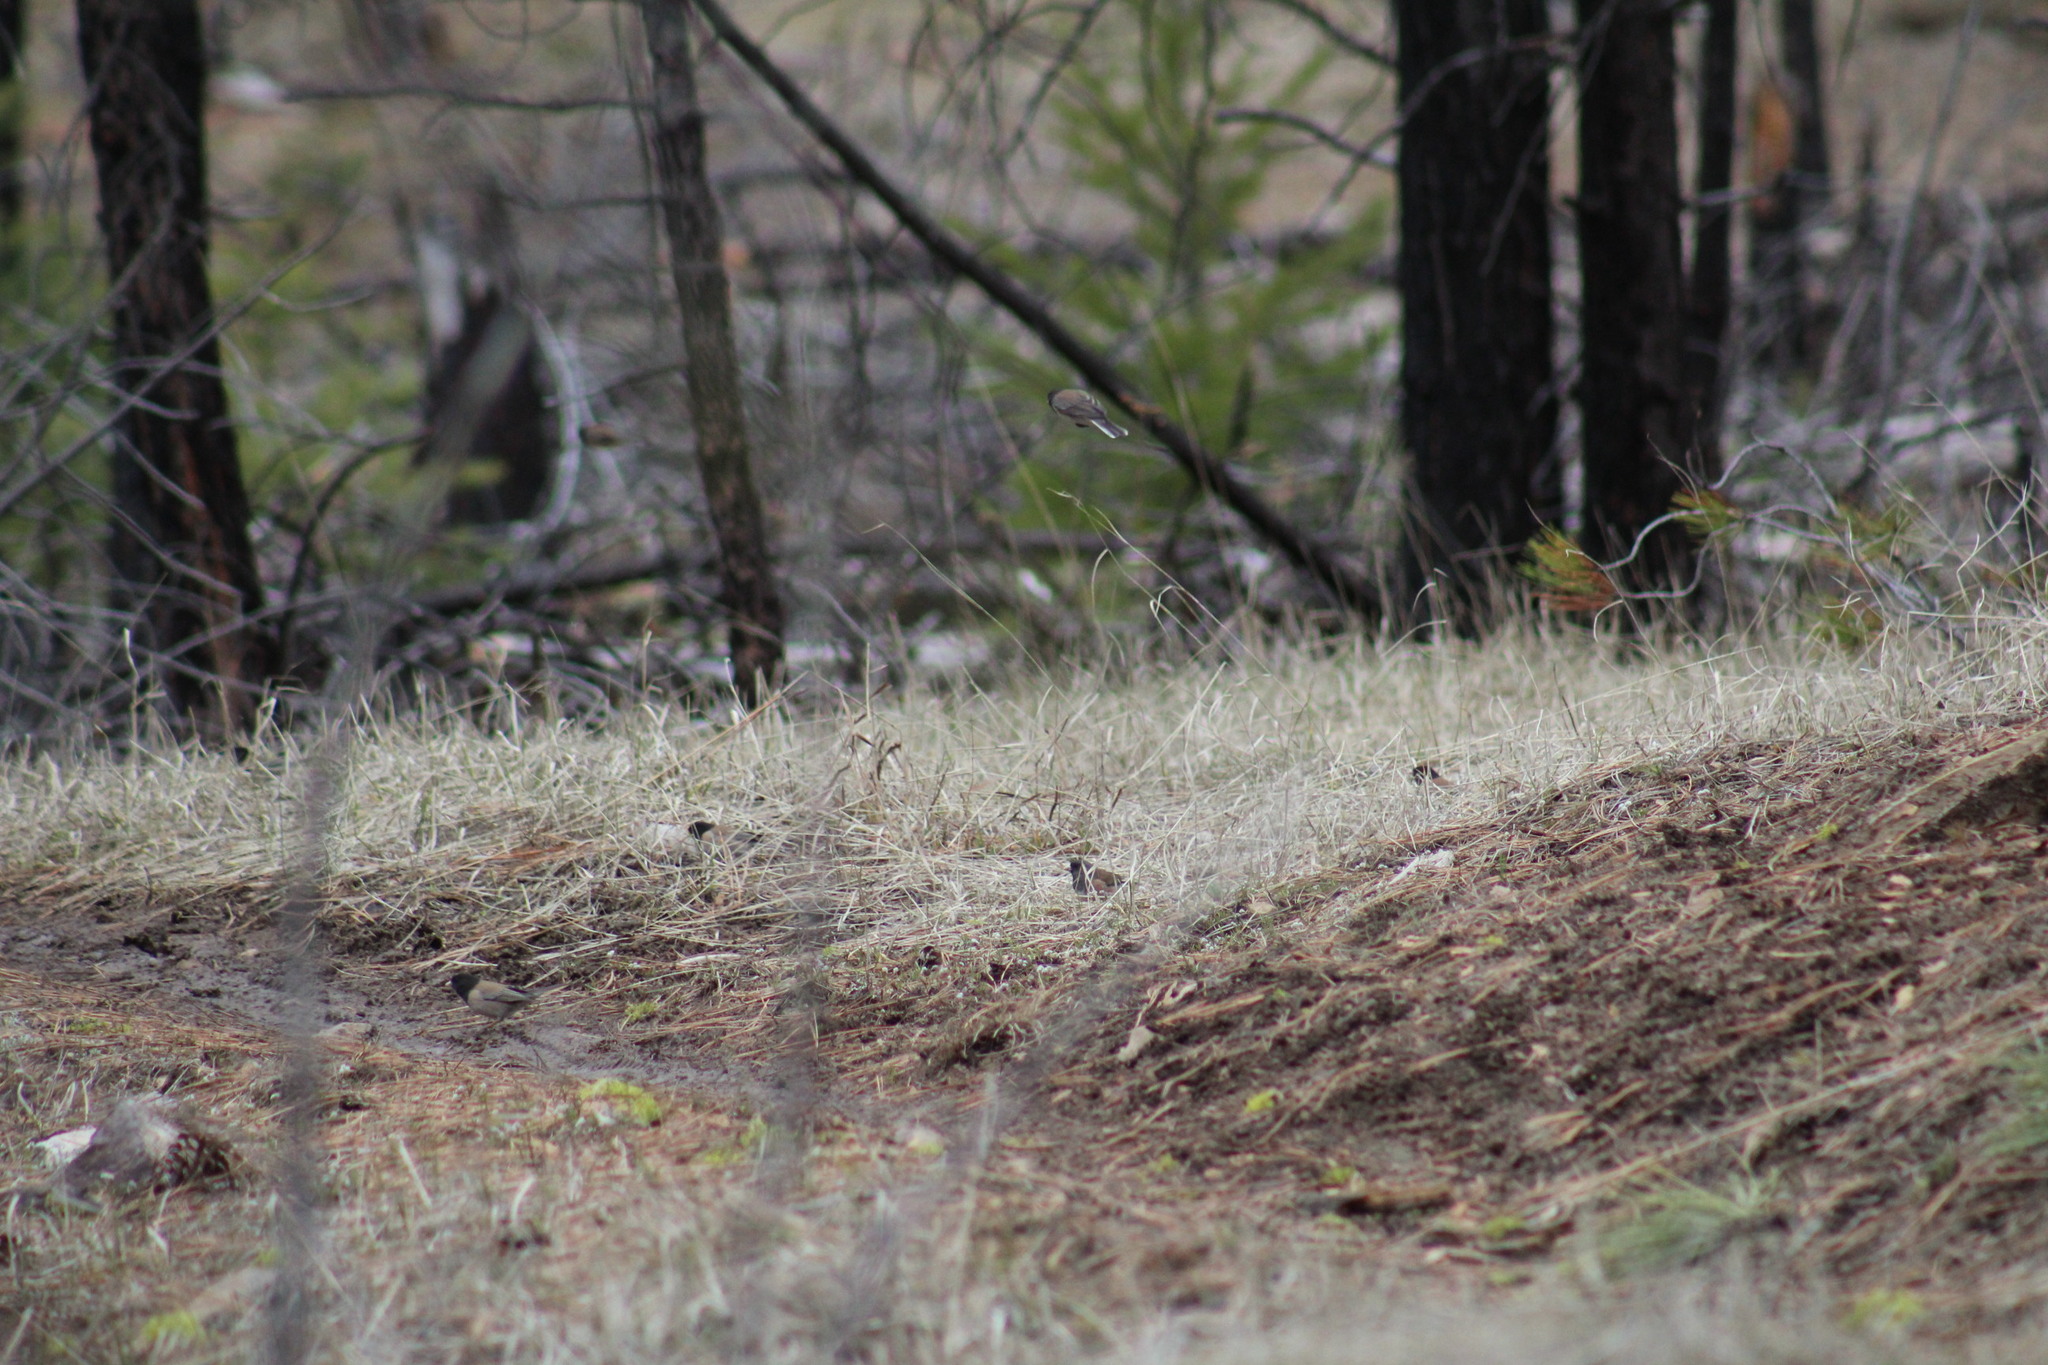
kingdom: Animalia
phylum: Chordata
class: Aves
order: Passeriformes
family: Passerellidae
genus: Junco
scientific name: Junco hyemalis
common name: Dark-eyed junco
